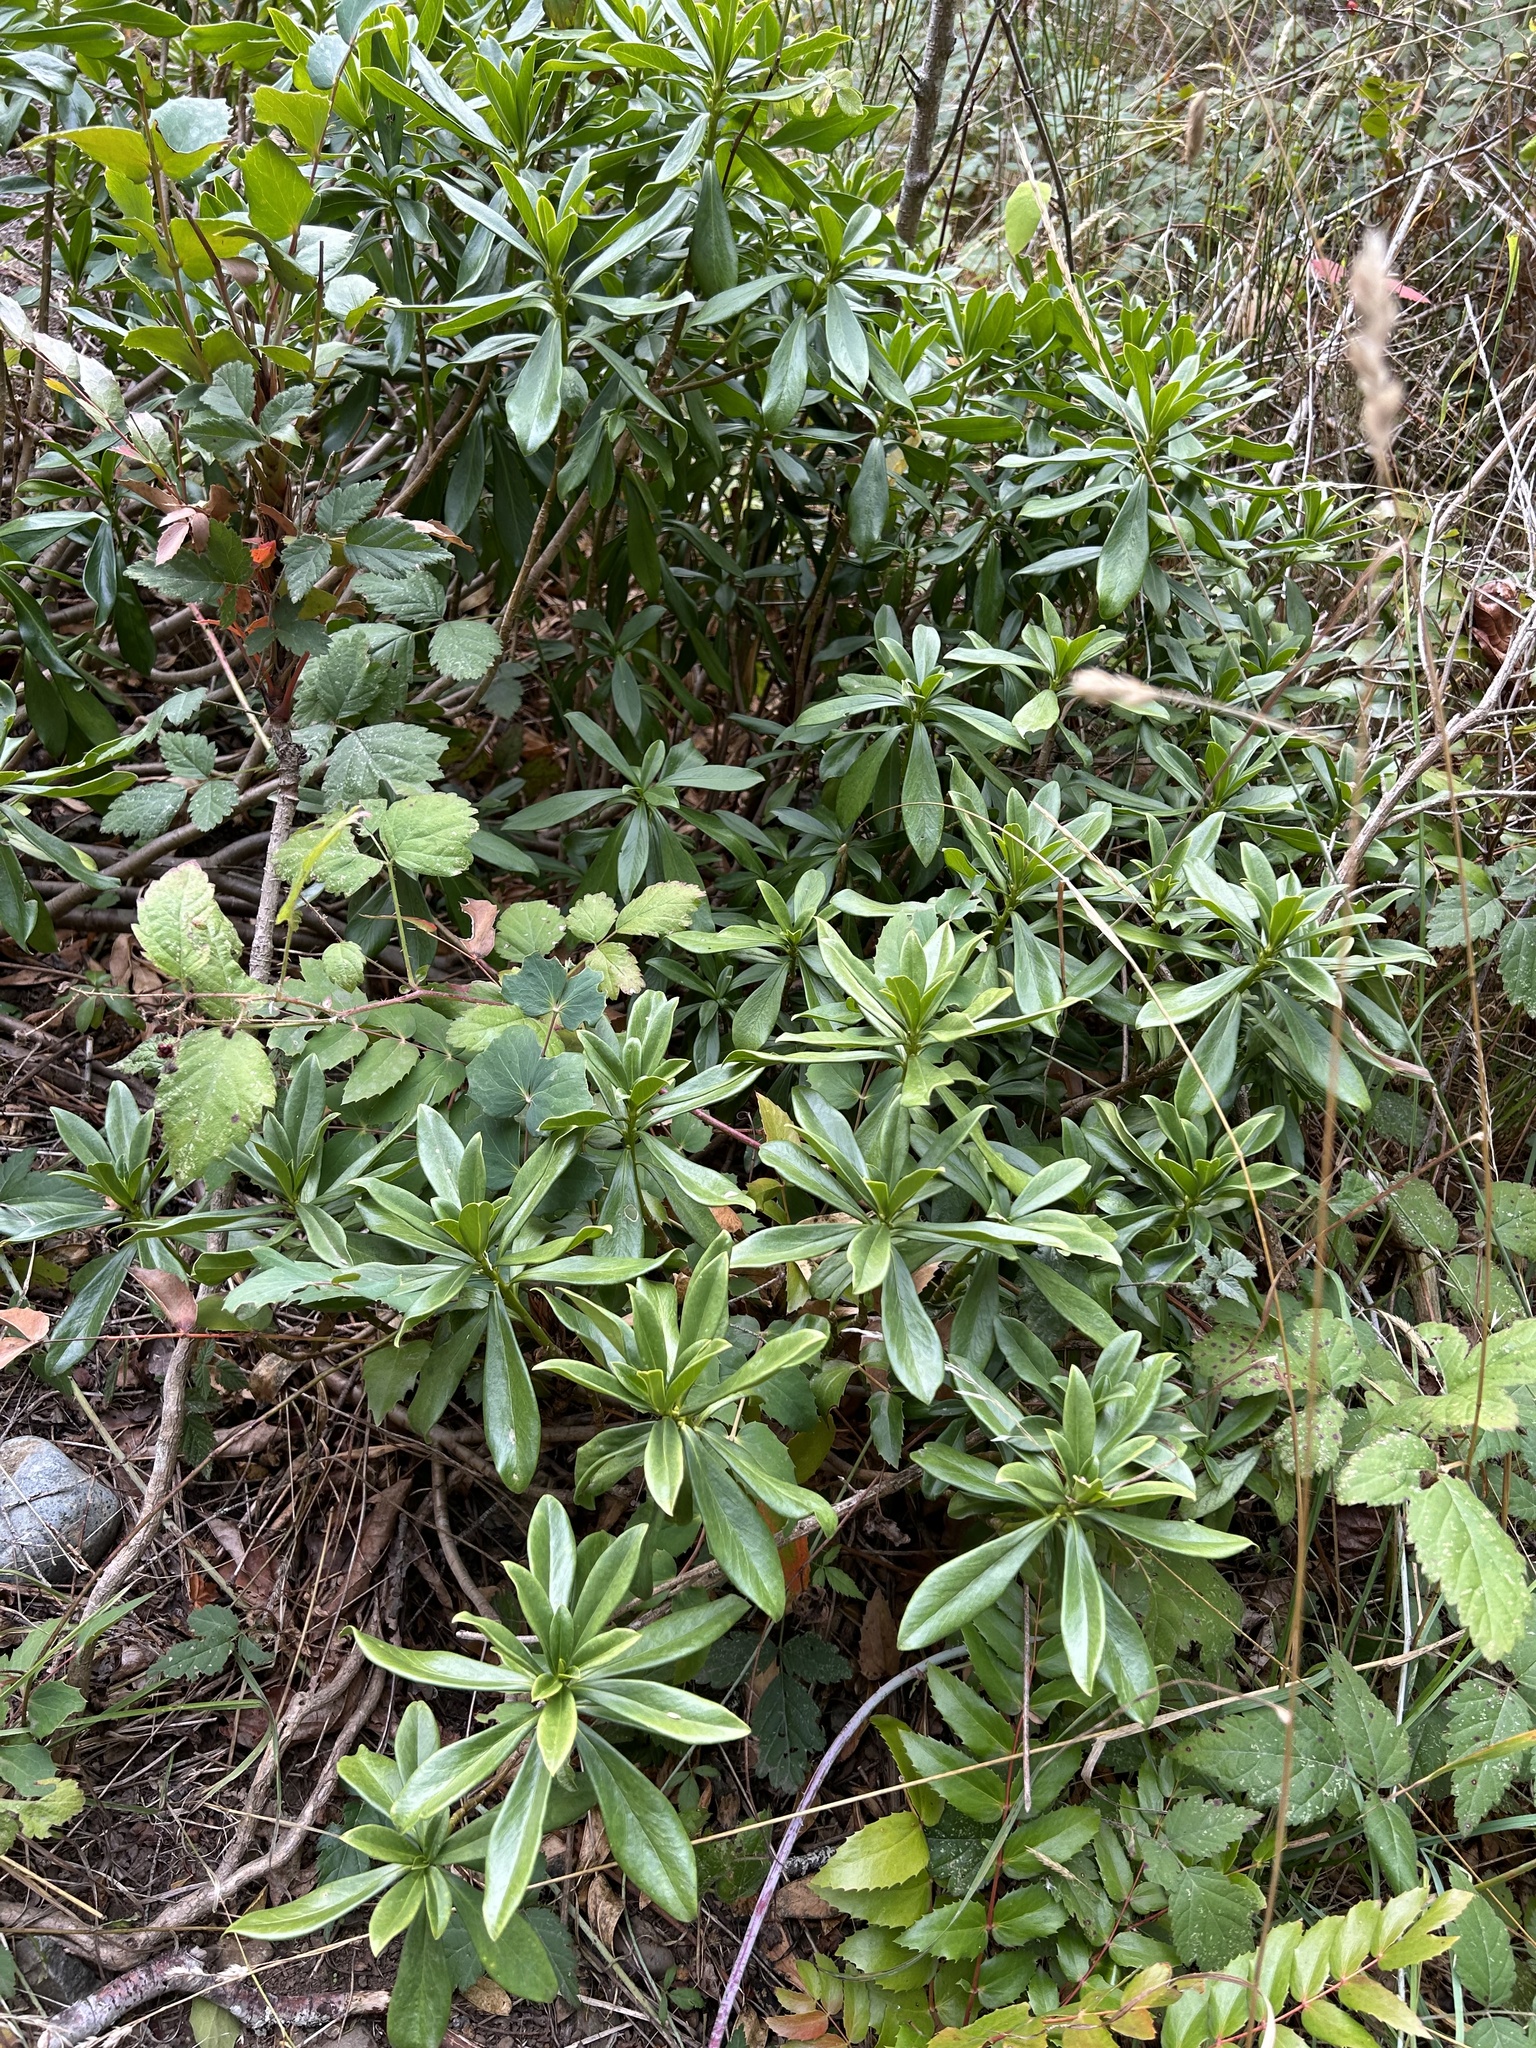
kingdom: Plantae
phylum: Tracheophyta
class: Magnoliopsida
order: Malvales
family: Thymelaeaceae
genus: Daphne
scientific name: Daphne laureola
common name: Spurge-laurel
